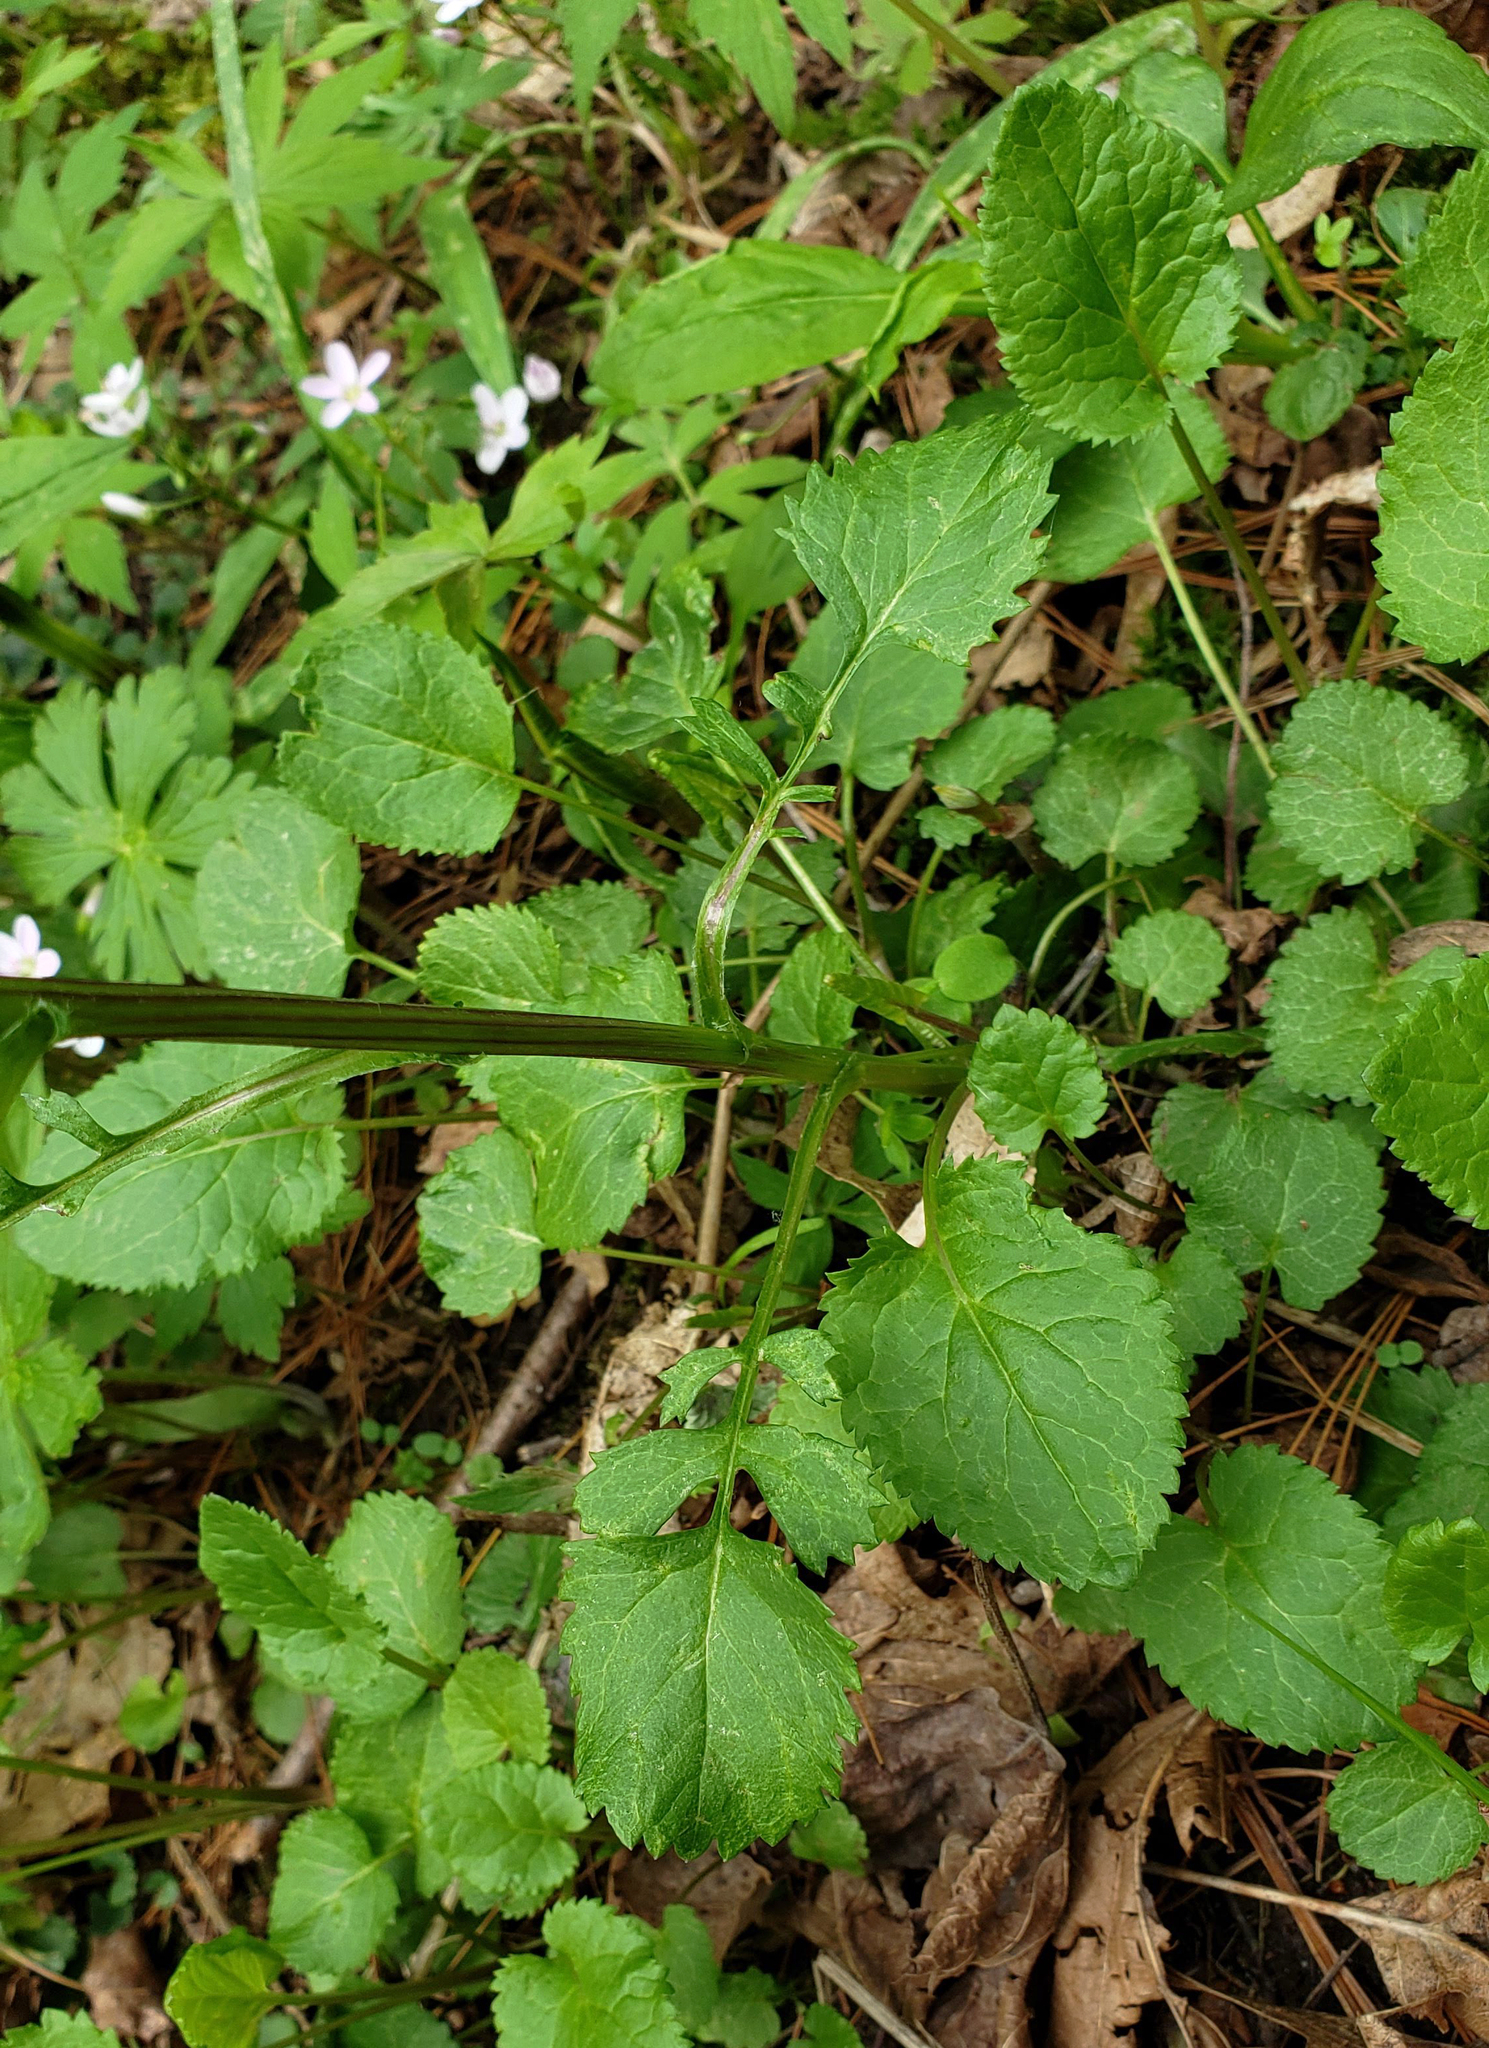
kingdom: Plantae
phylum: Tracheophyta
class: Magnoliopsida
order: Asterales
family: Asteraceae
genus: Packera
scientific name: Packera aurea
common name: Golden groundsel
